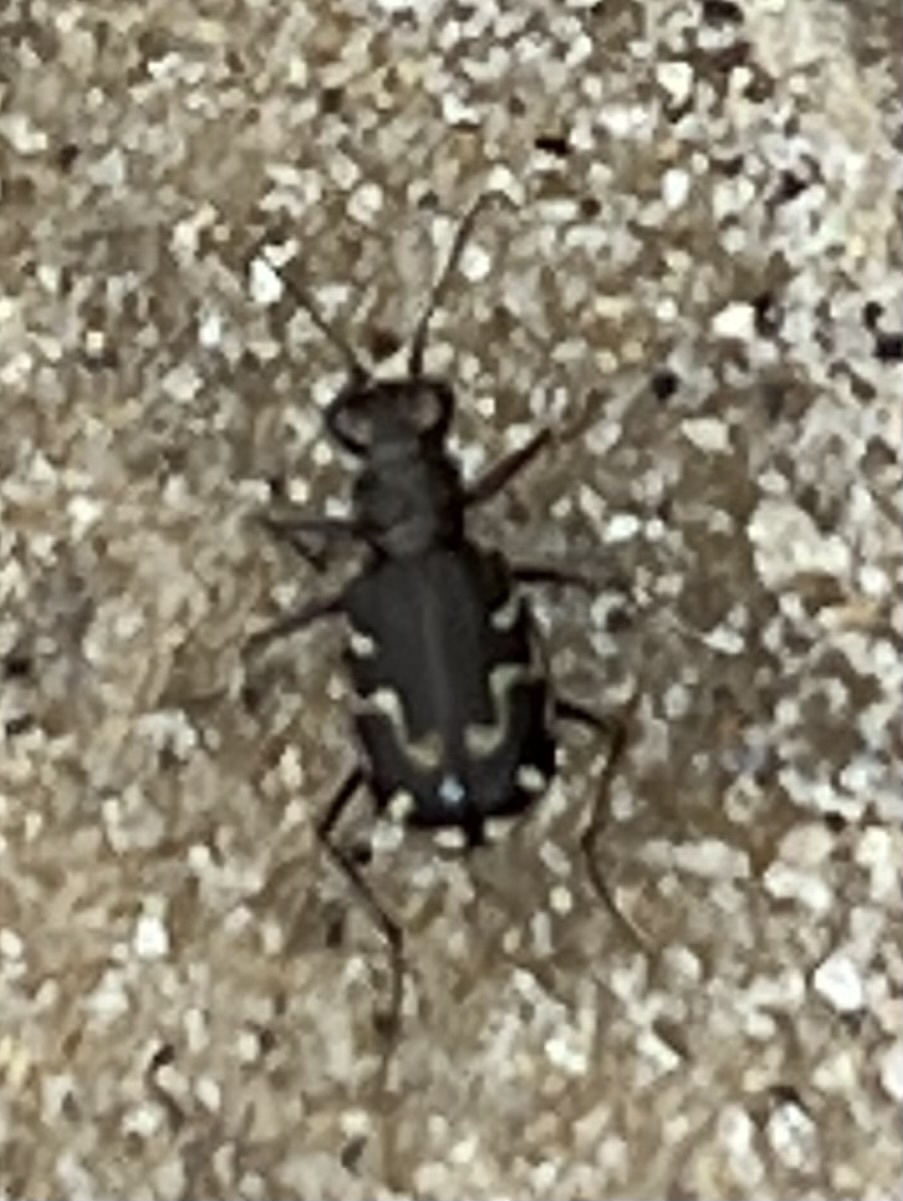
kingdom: Animalia
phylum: Arthropoda
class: Insecta
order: Coleoptera
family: Carabidae
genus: Cicindela
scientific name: Cicindela repanda
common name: Bronzed tiger beetle
